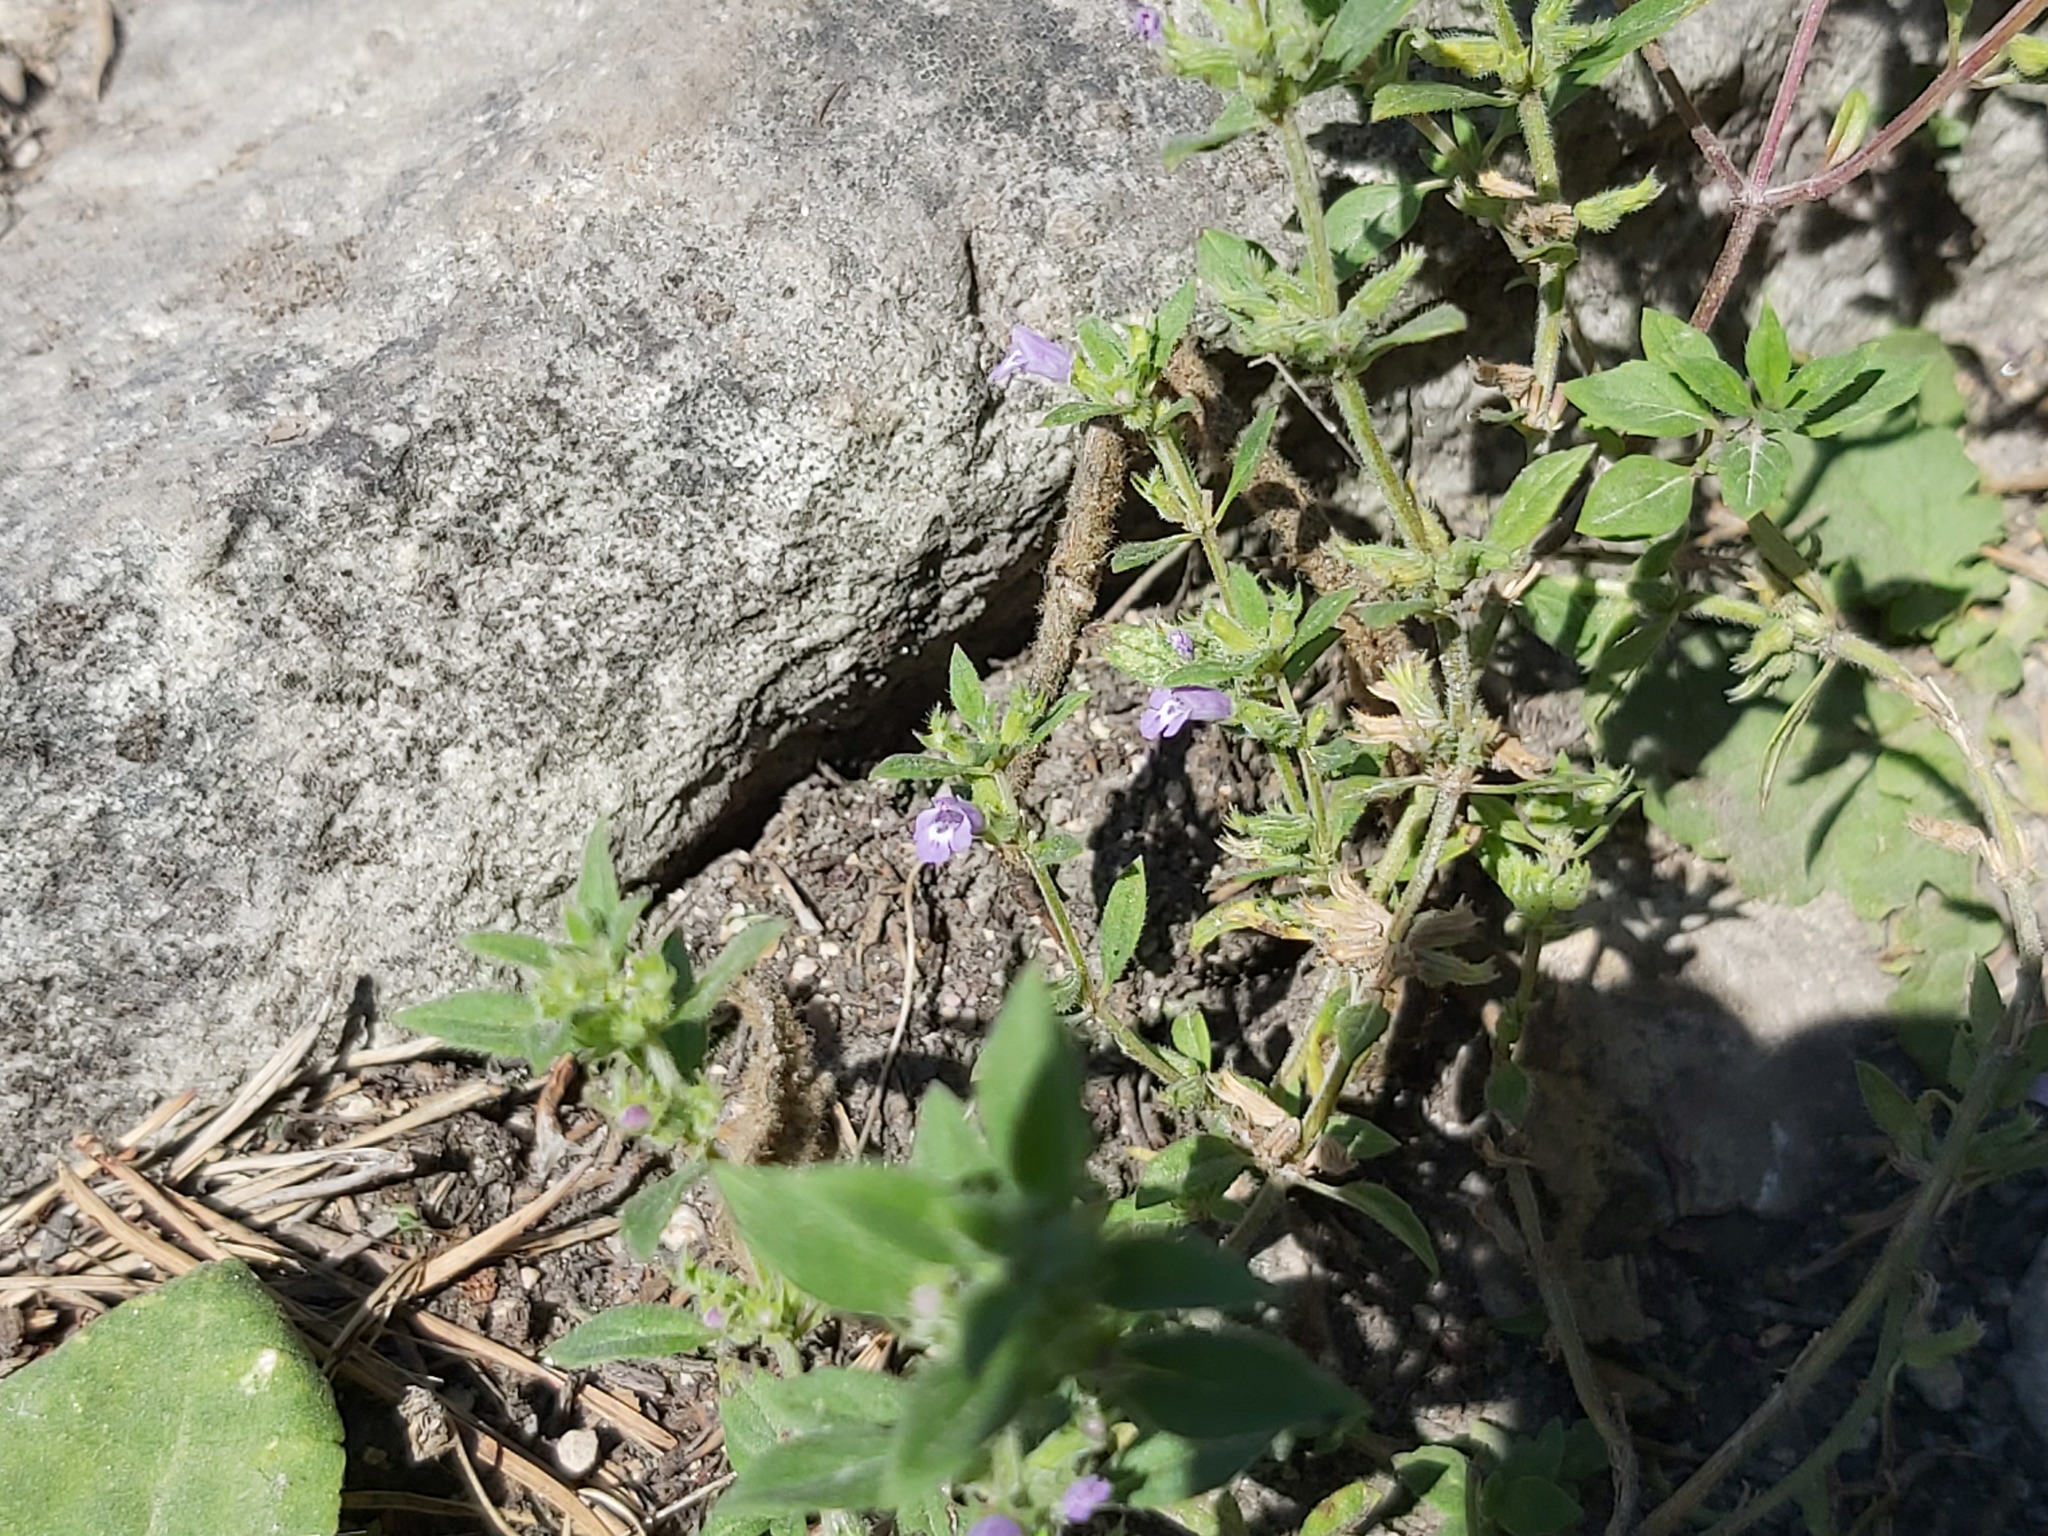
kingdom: Plantae
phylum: Tracheophyta
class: Magnoliopsida
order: Lamiales
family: Lamiaceae
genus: Clinopodium
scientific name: Clinopodium acinos
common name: Basil thyme
